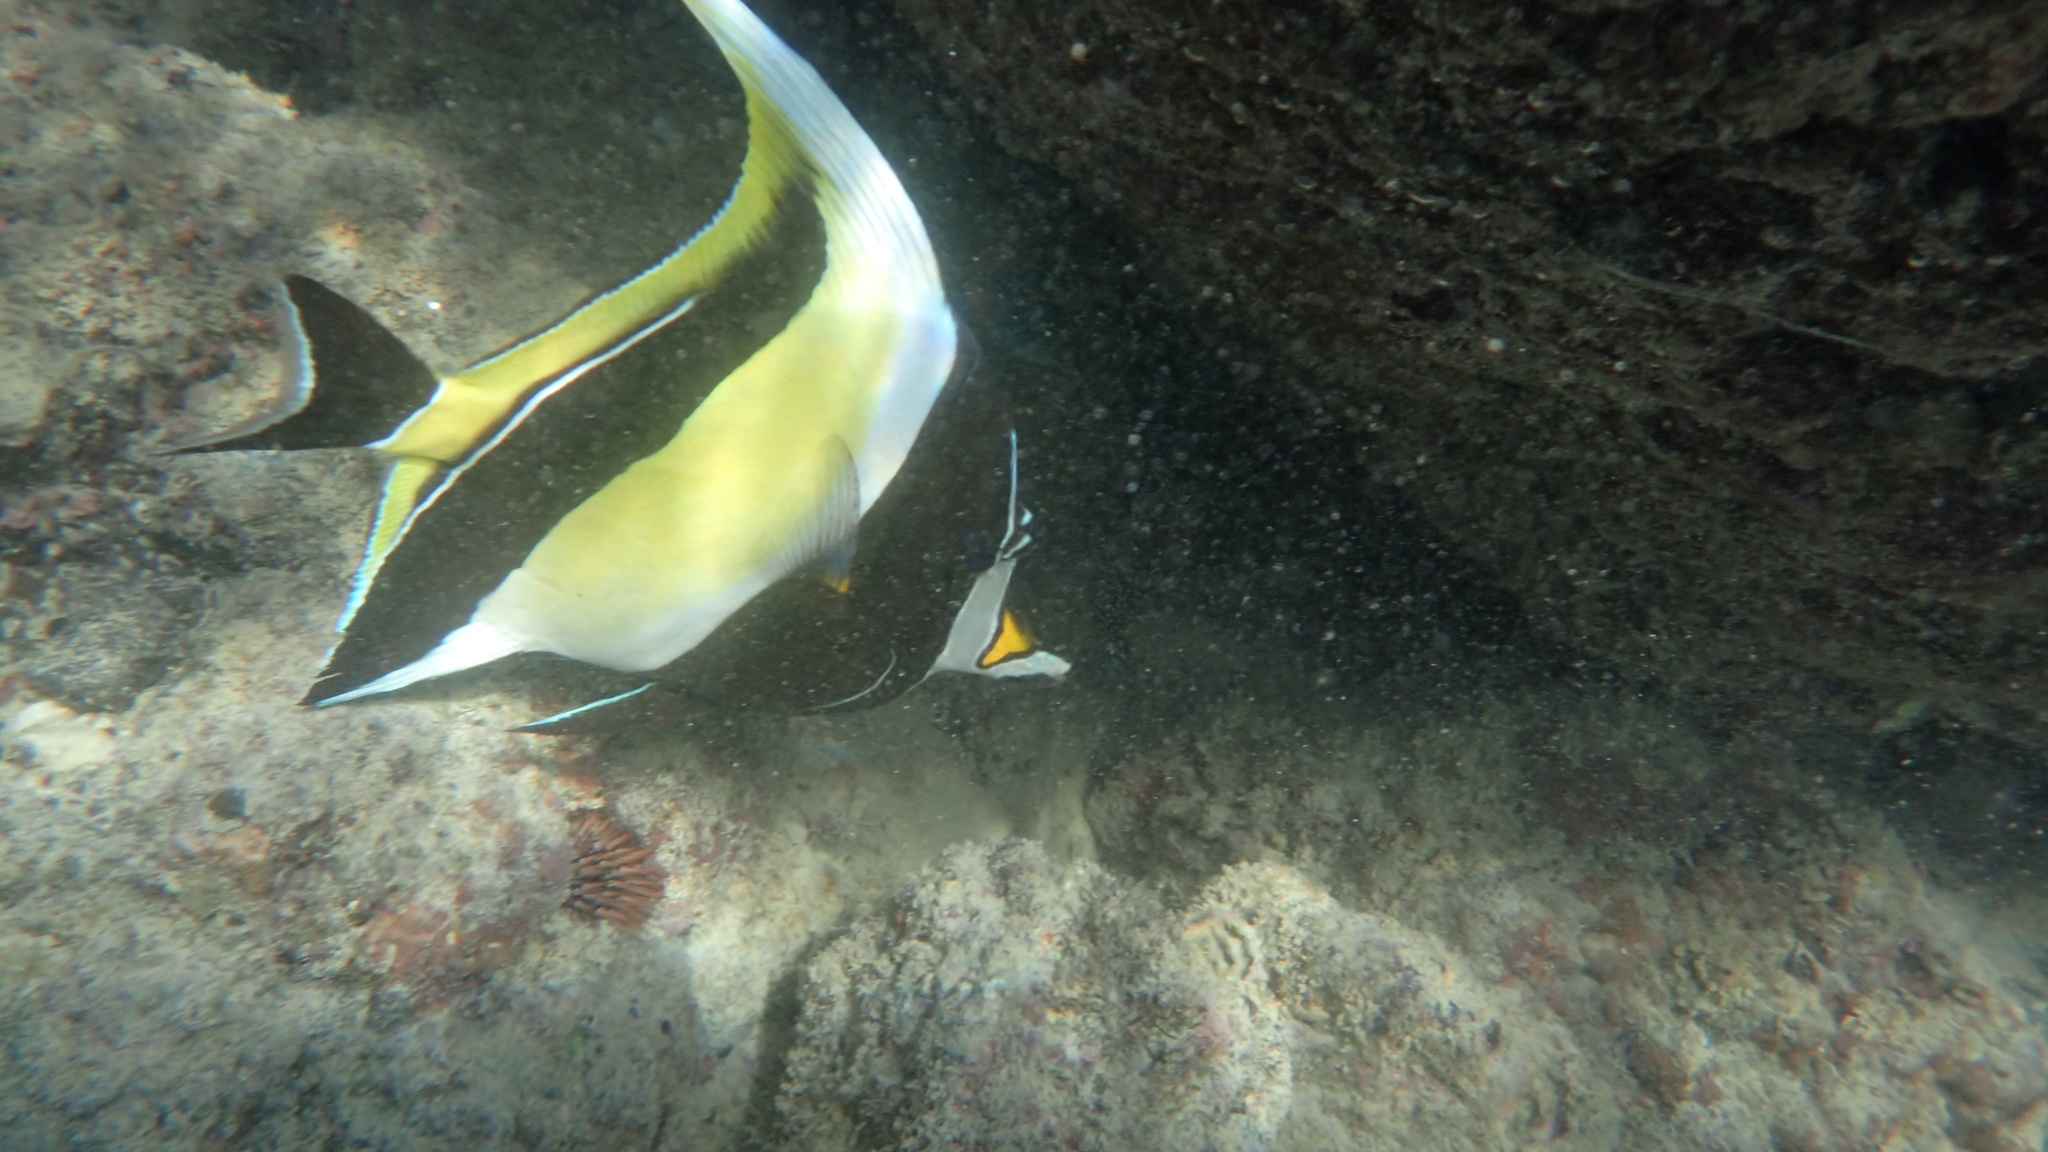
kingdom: Animalia
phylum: Chordata
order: Perciformes
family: Zanclidae
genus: Zanclus
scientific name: Zanclus cornutus
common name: Moorish idol
